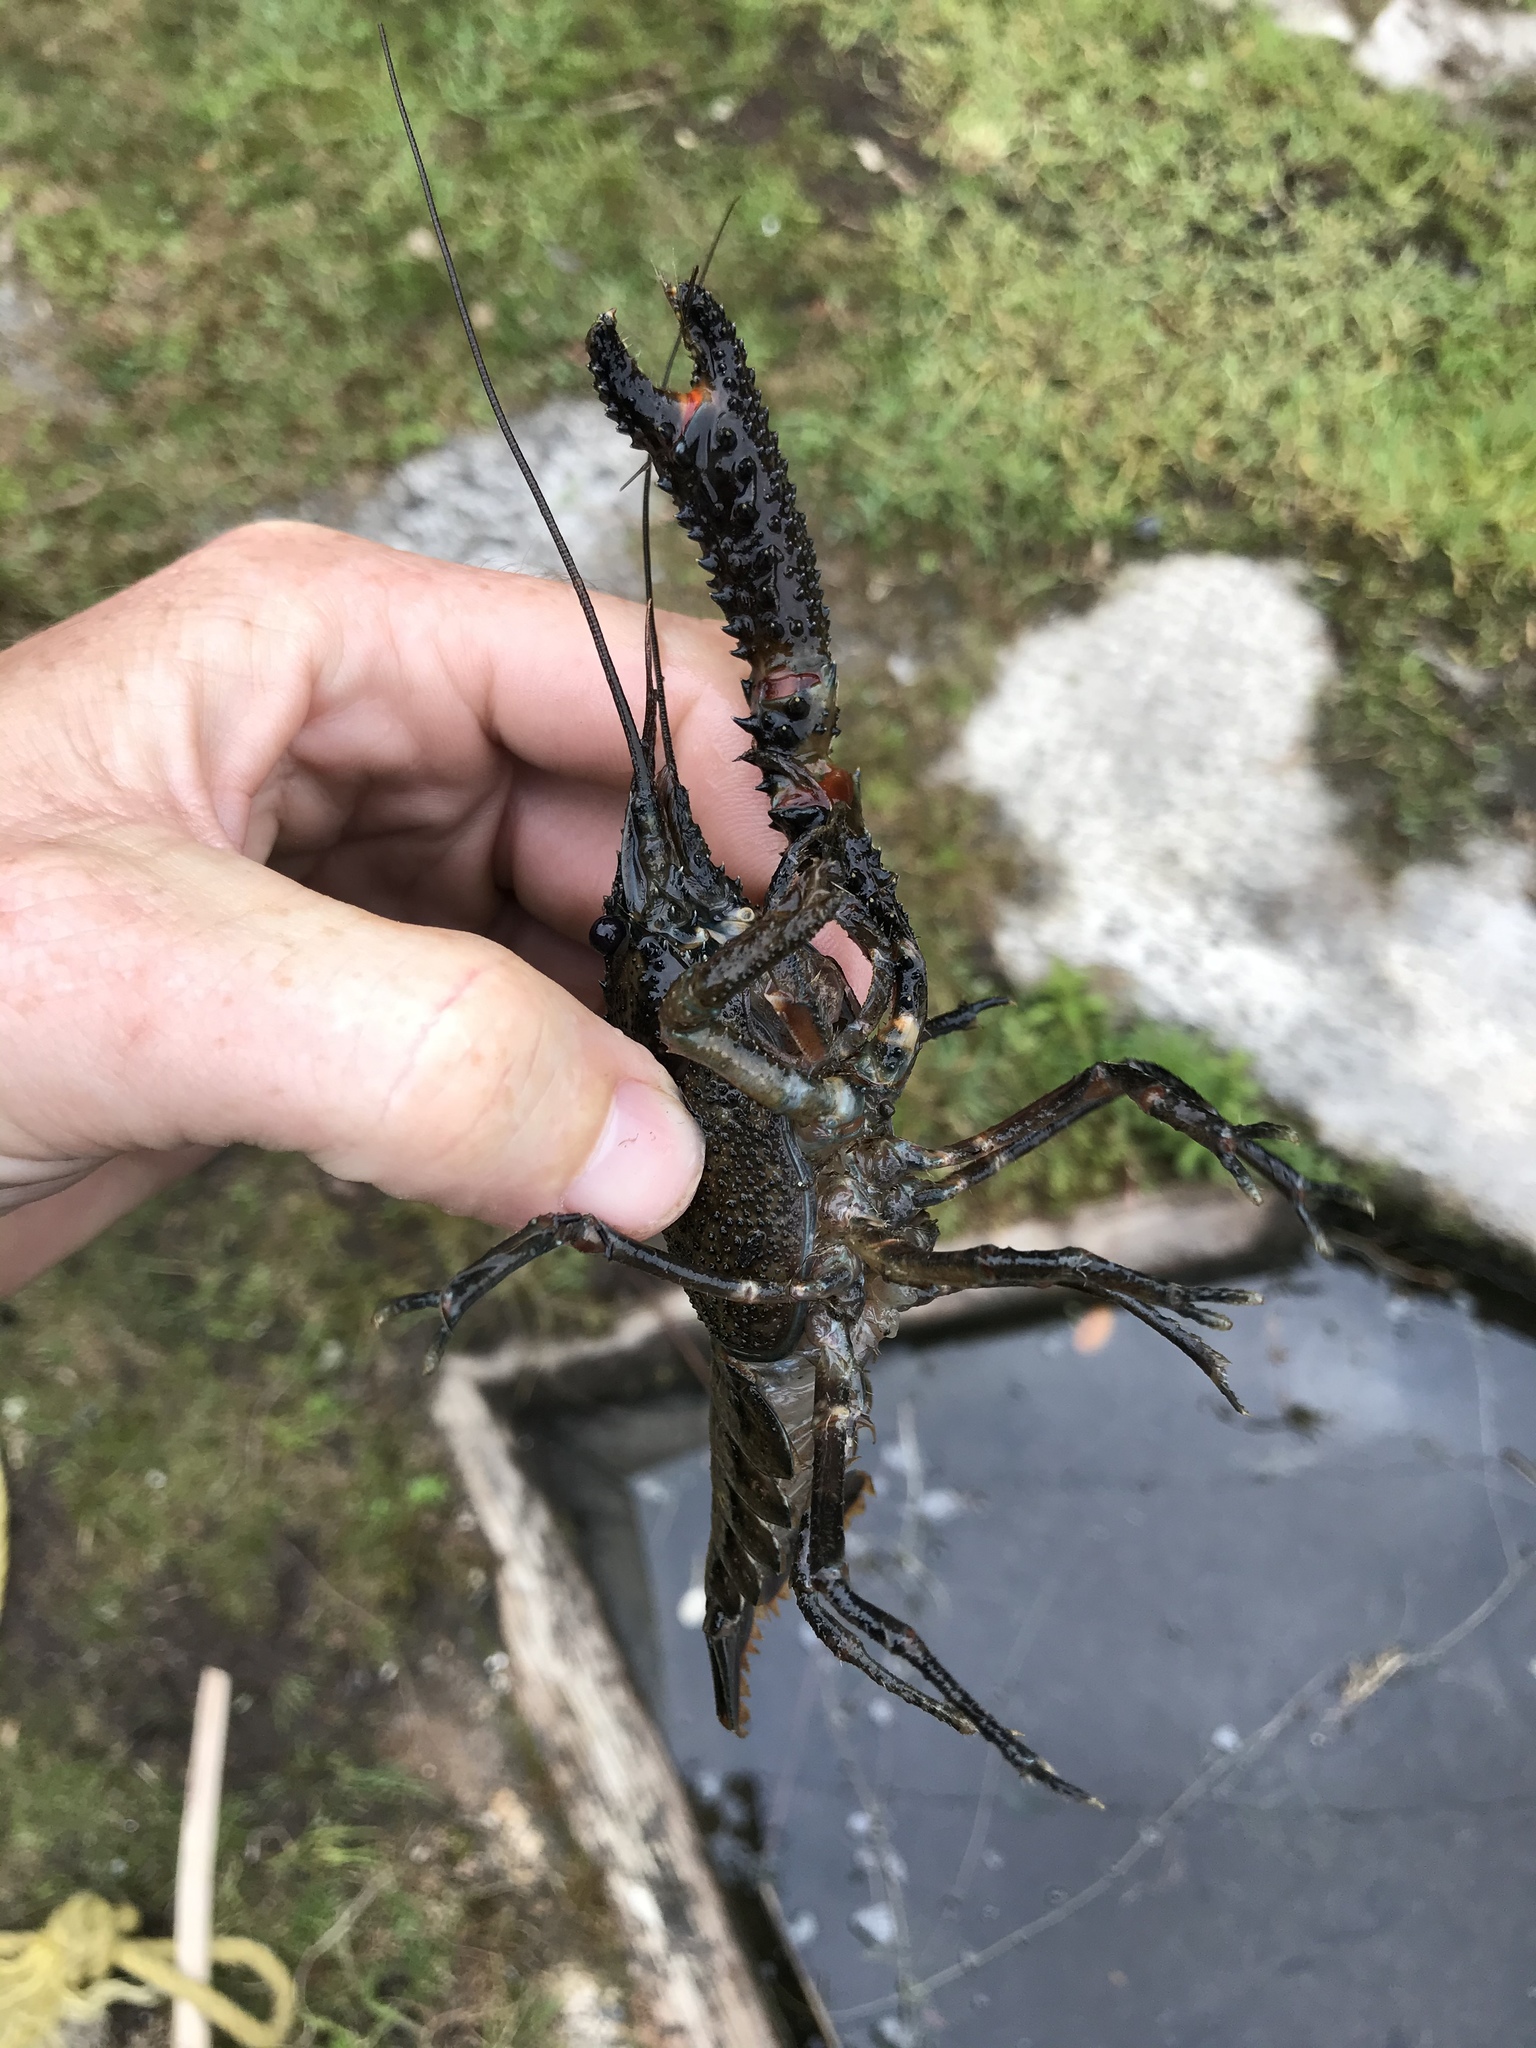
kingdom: Animalia
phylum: Arthropoda
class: Malacostraca
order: Decapoda
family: Parastacidae
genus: Paranephrops
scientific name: Paranephrops planifrons
